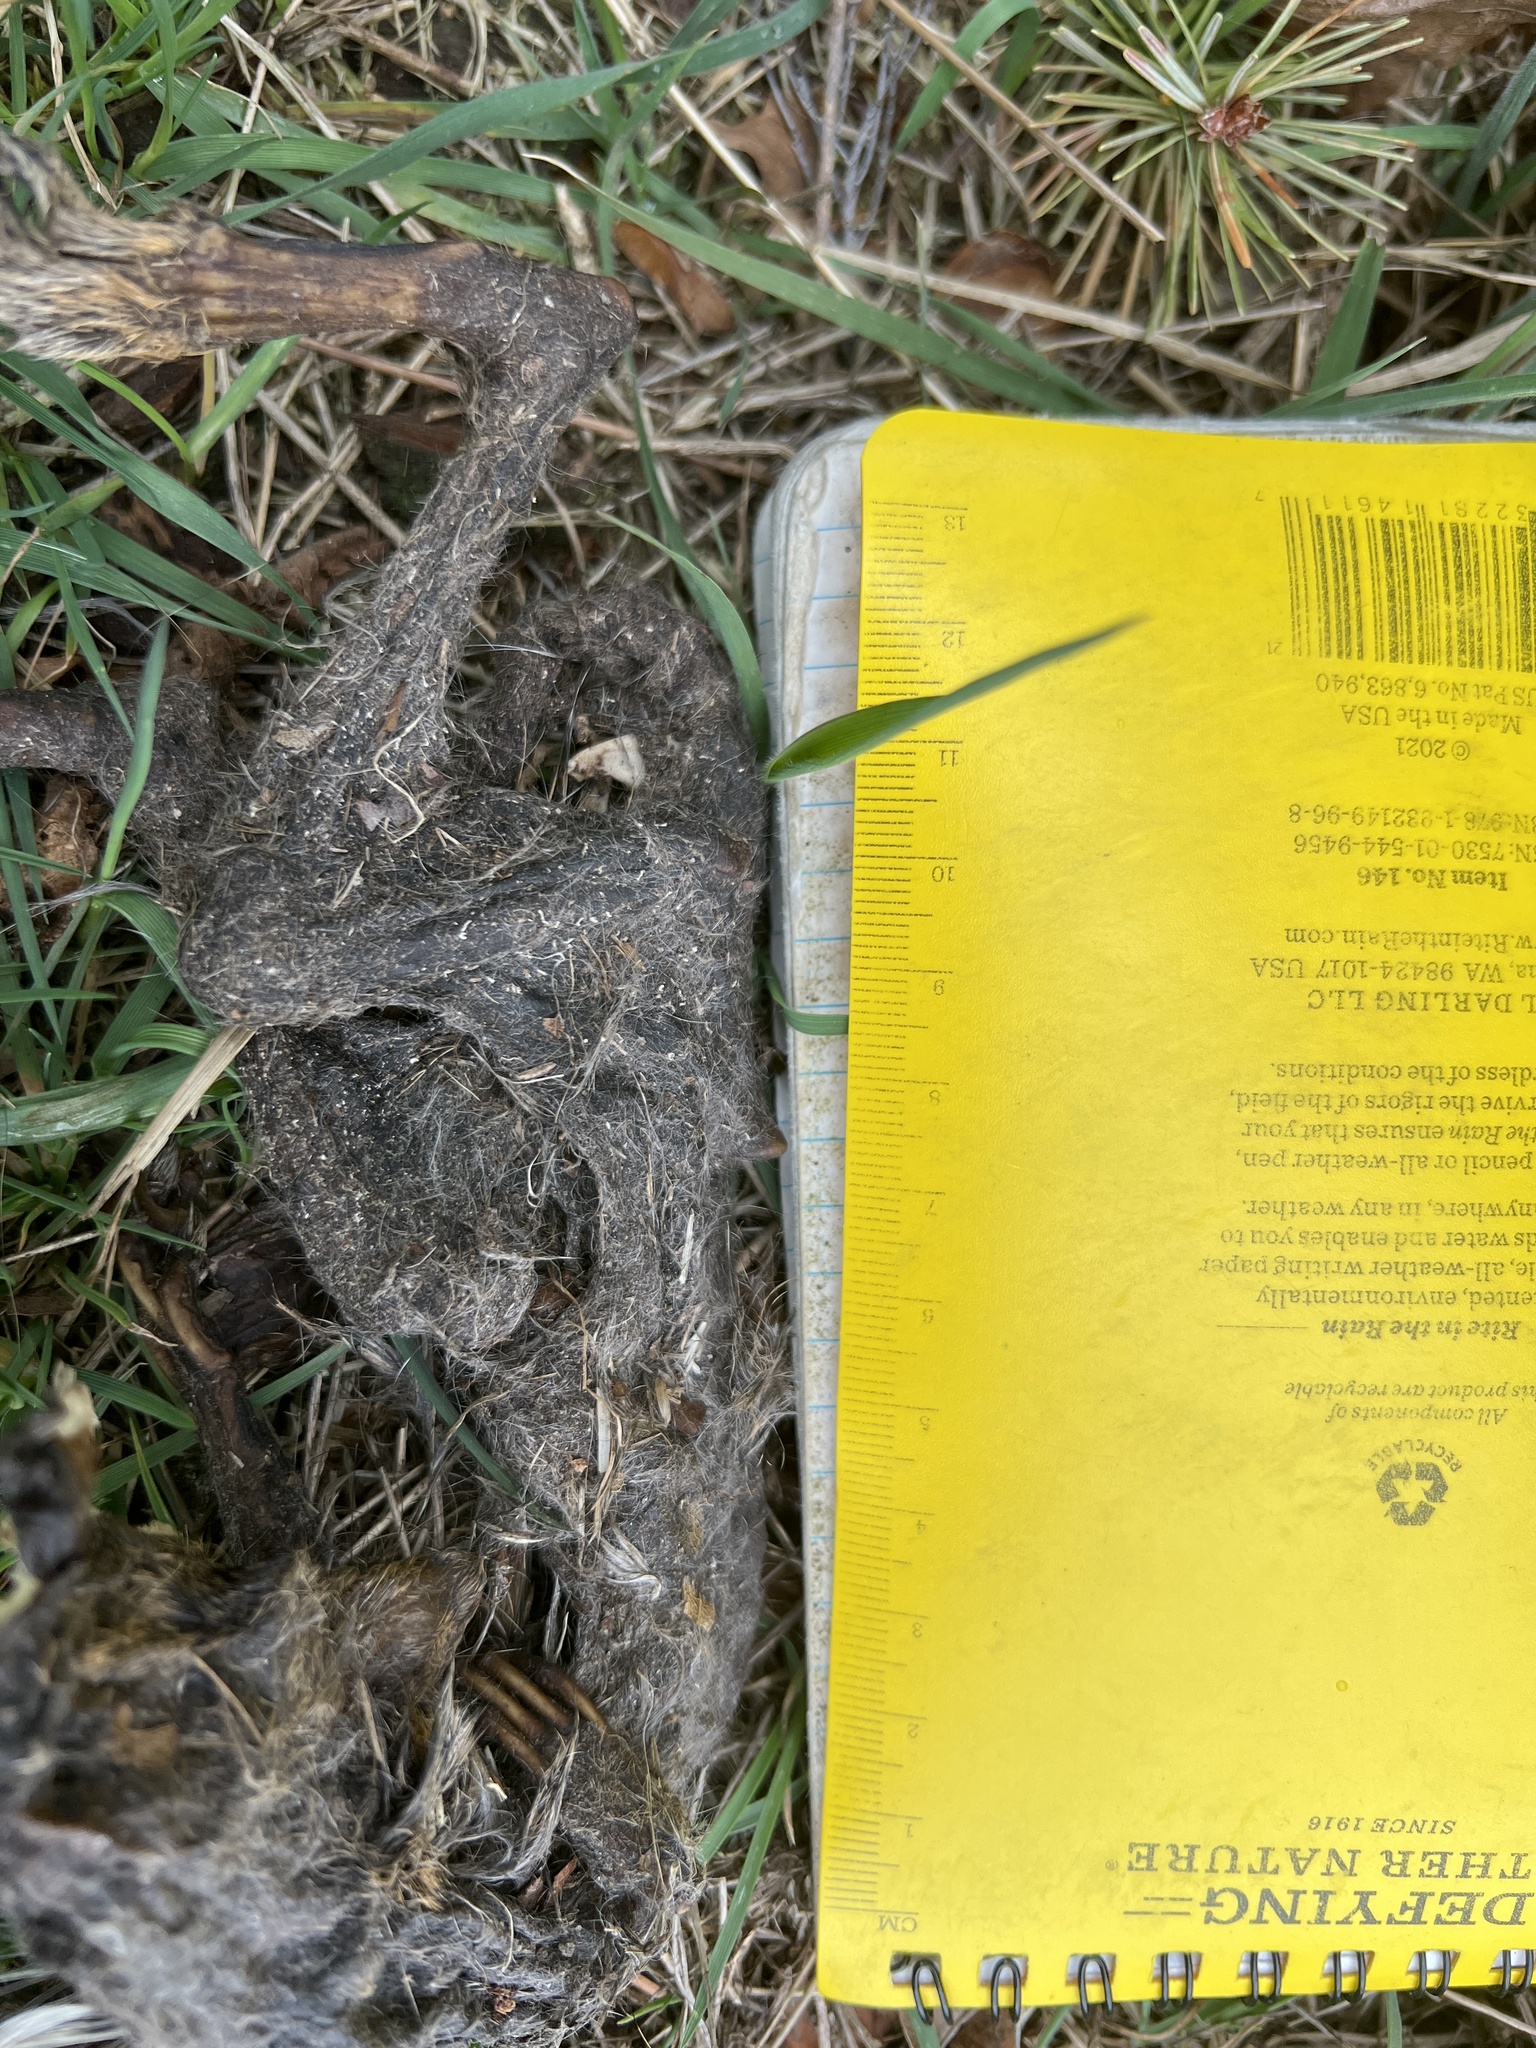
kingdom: Animalia
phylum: Chordata
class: Mammalia
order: Rodentia
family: Sciuridae
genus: Sciurus
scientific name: Sciurus carolinensis
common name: Eastern gray squirrel
